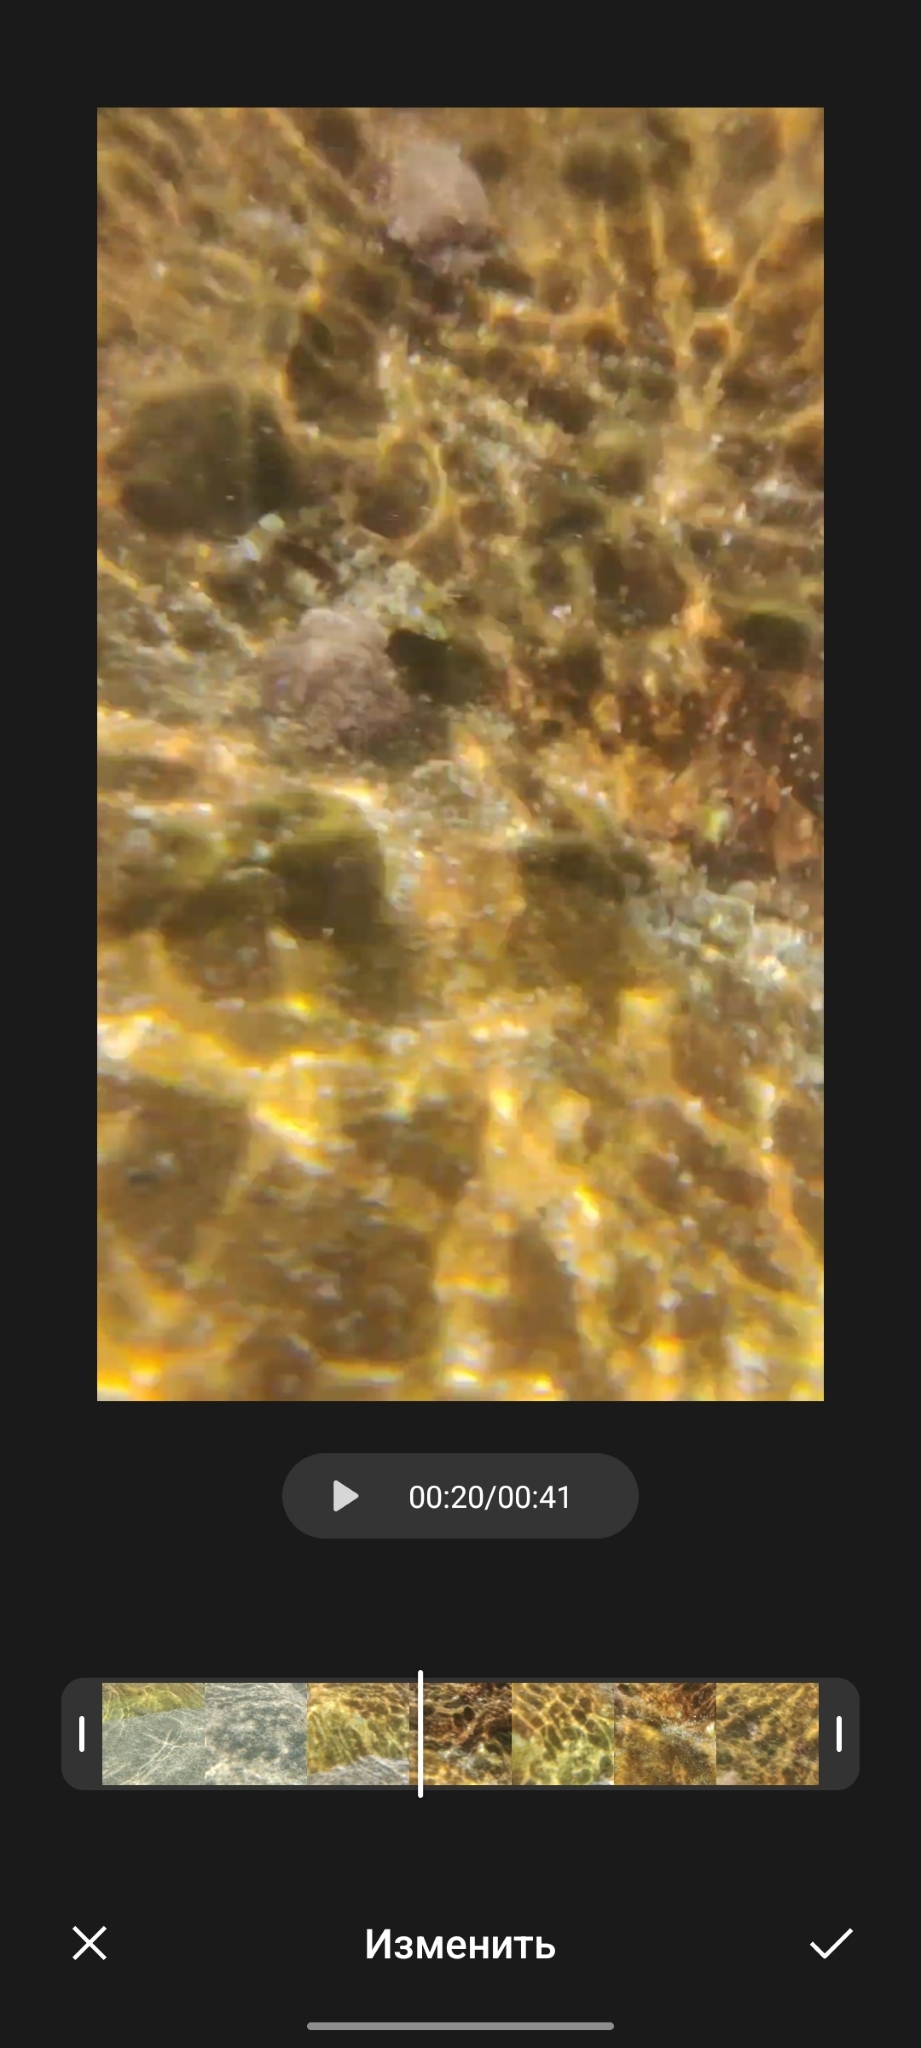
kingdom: Animalia
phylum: Chordata
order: Perciformes
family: Blenniidae
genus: Aidablennius
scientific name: Aidablennius sphynx
